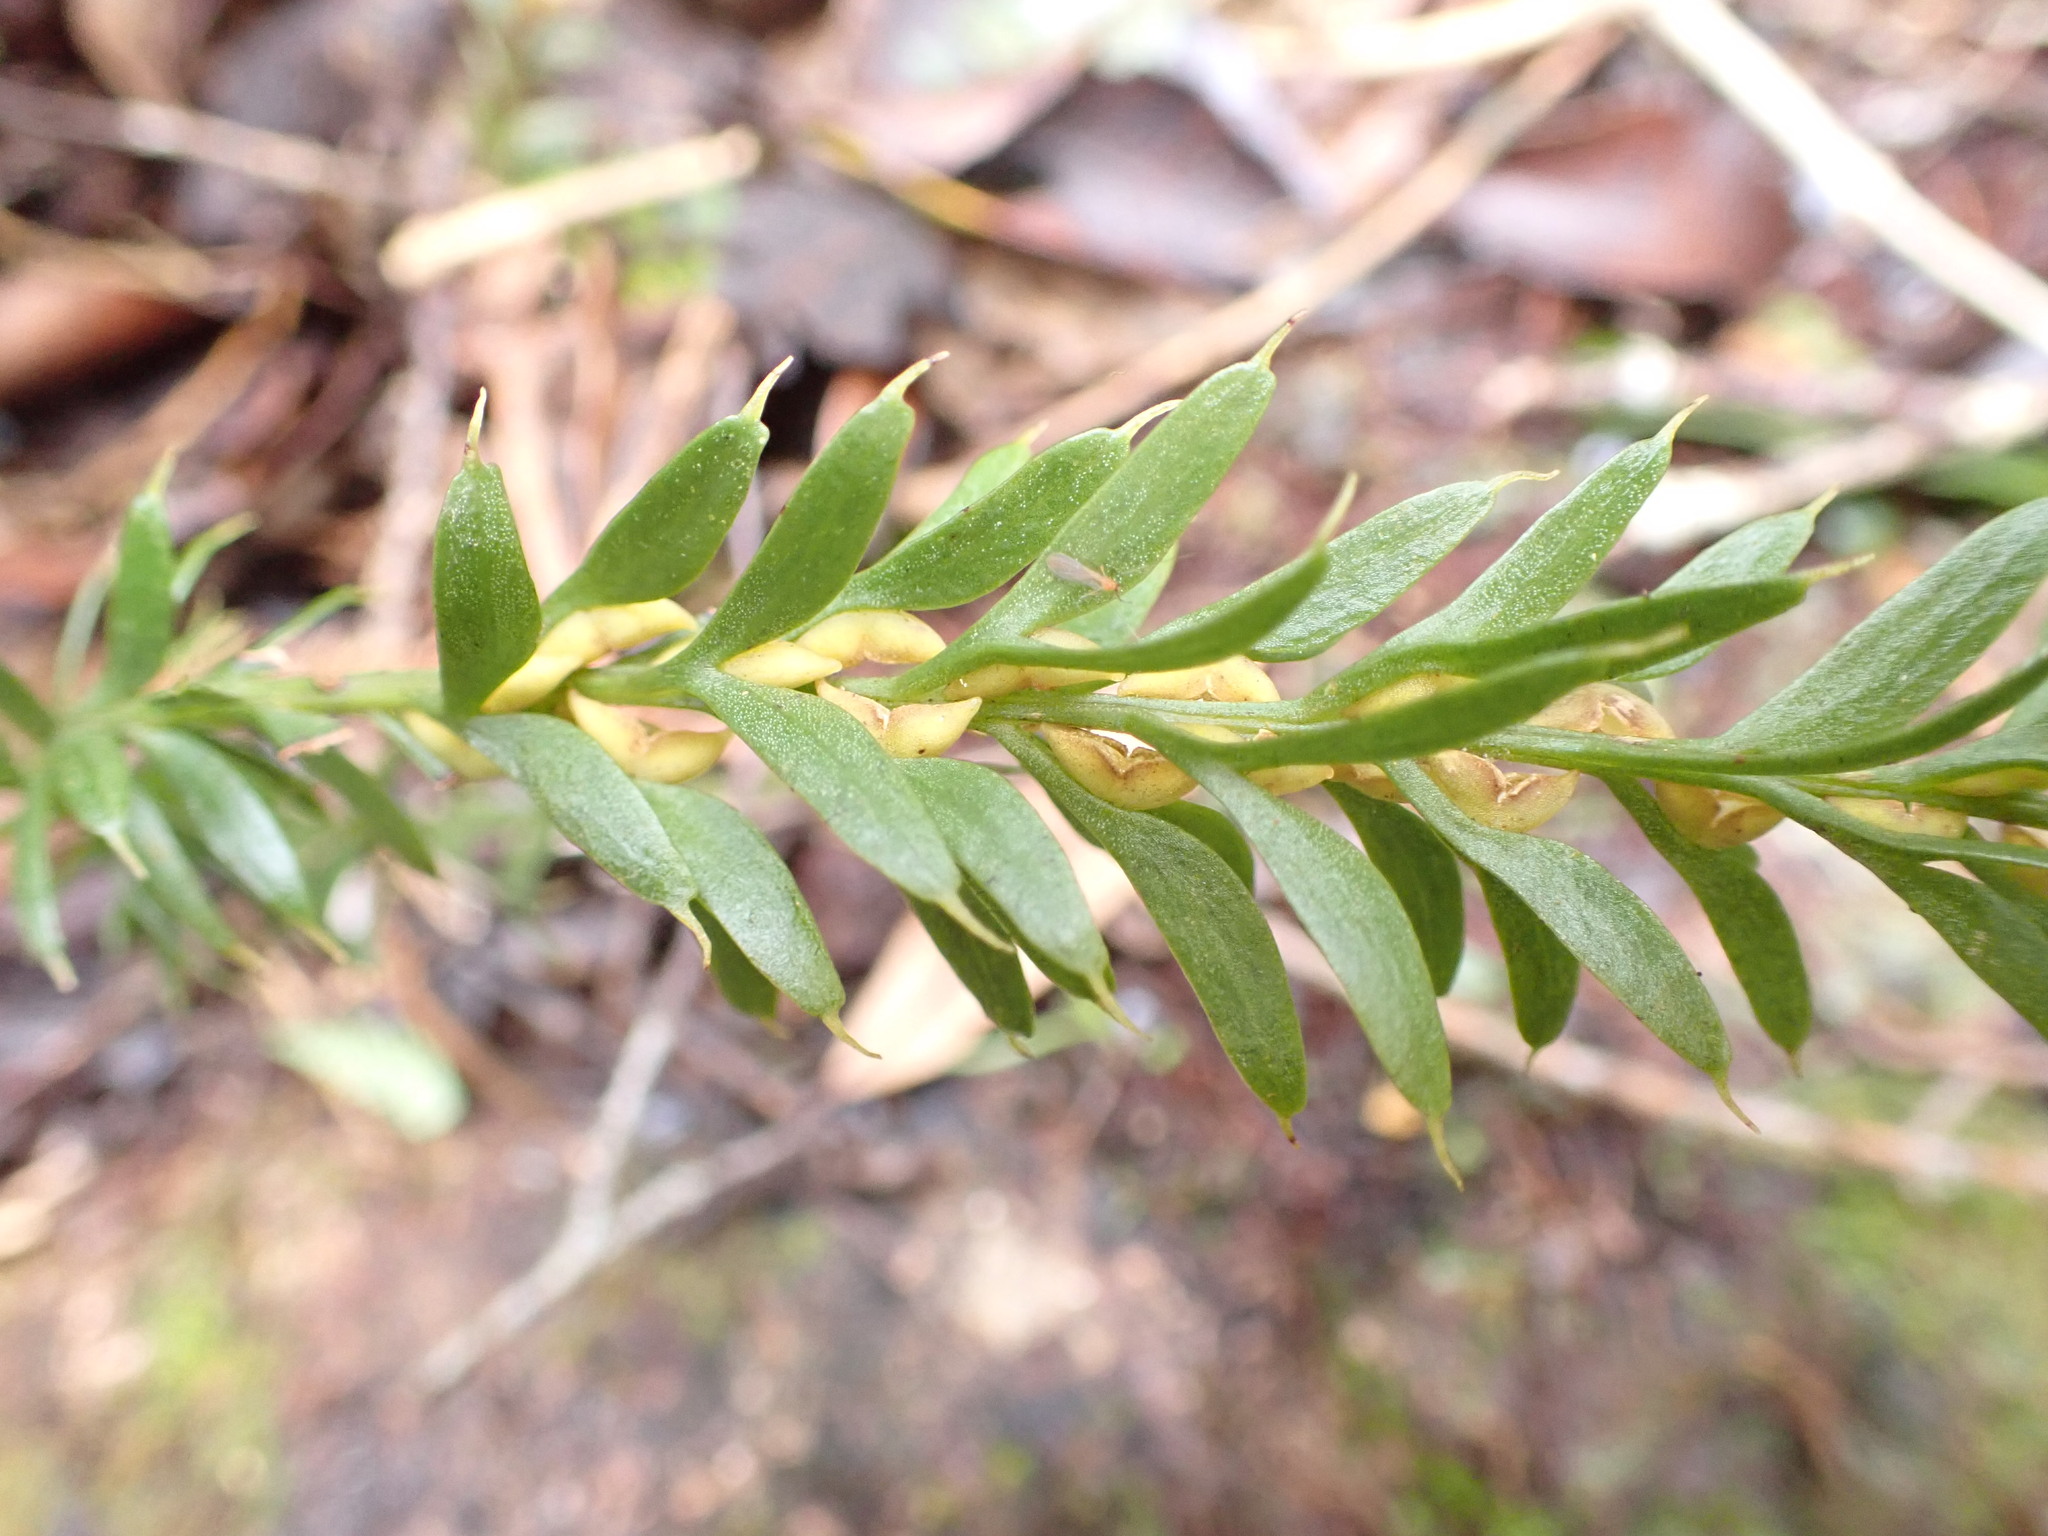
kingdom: Plantae
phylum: Tracheophyta
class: Polypodiopsida
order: Psilotales
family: Psilotaceae
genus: Tmesipteris
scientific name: Tmesipteris tannensis
